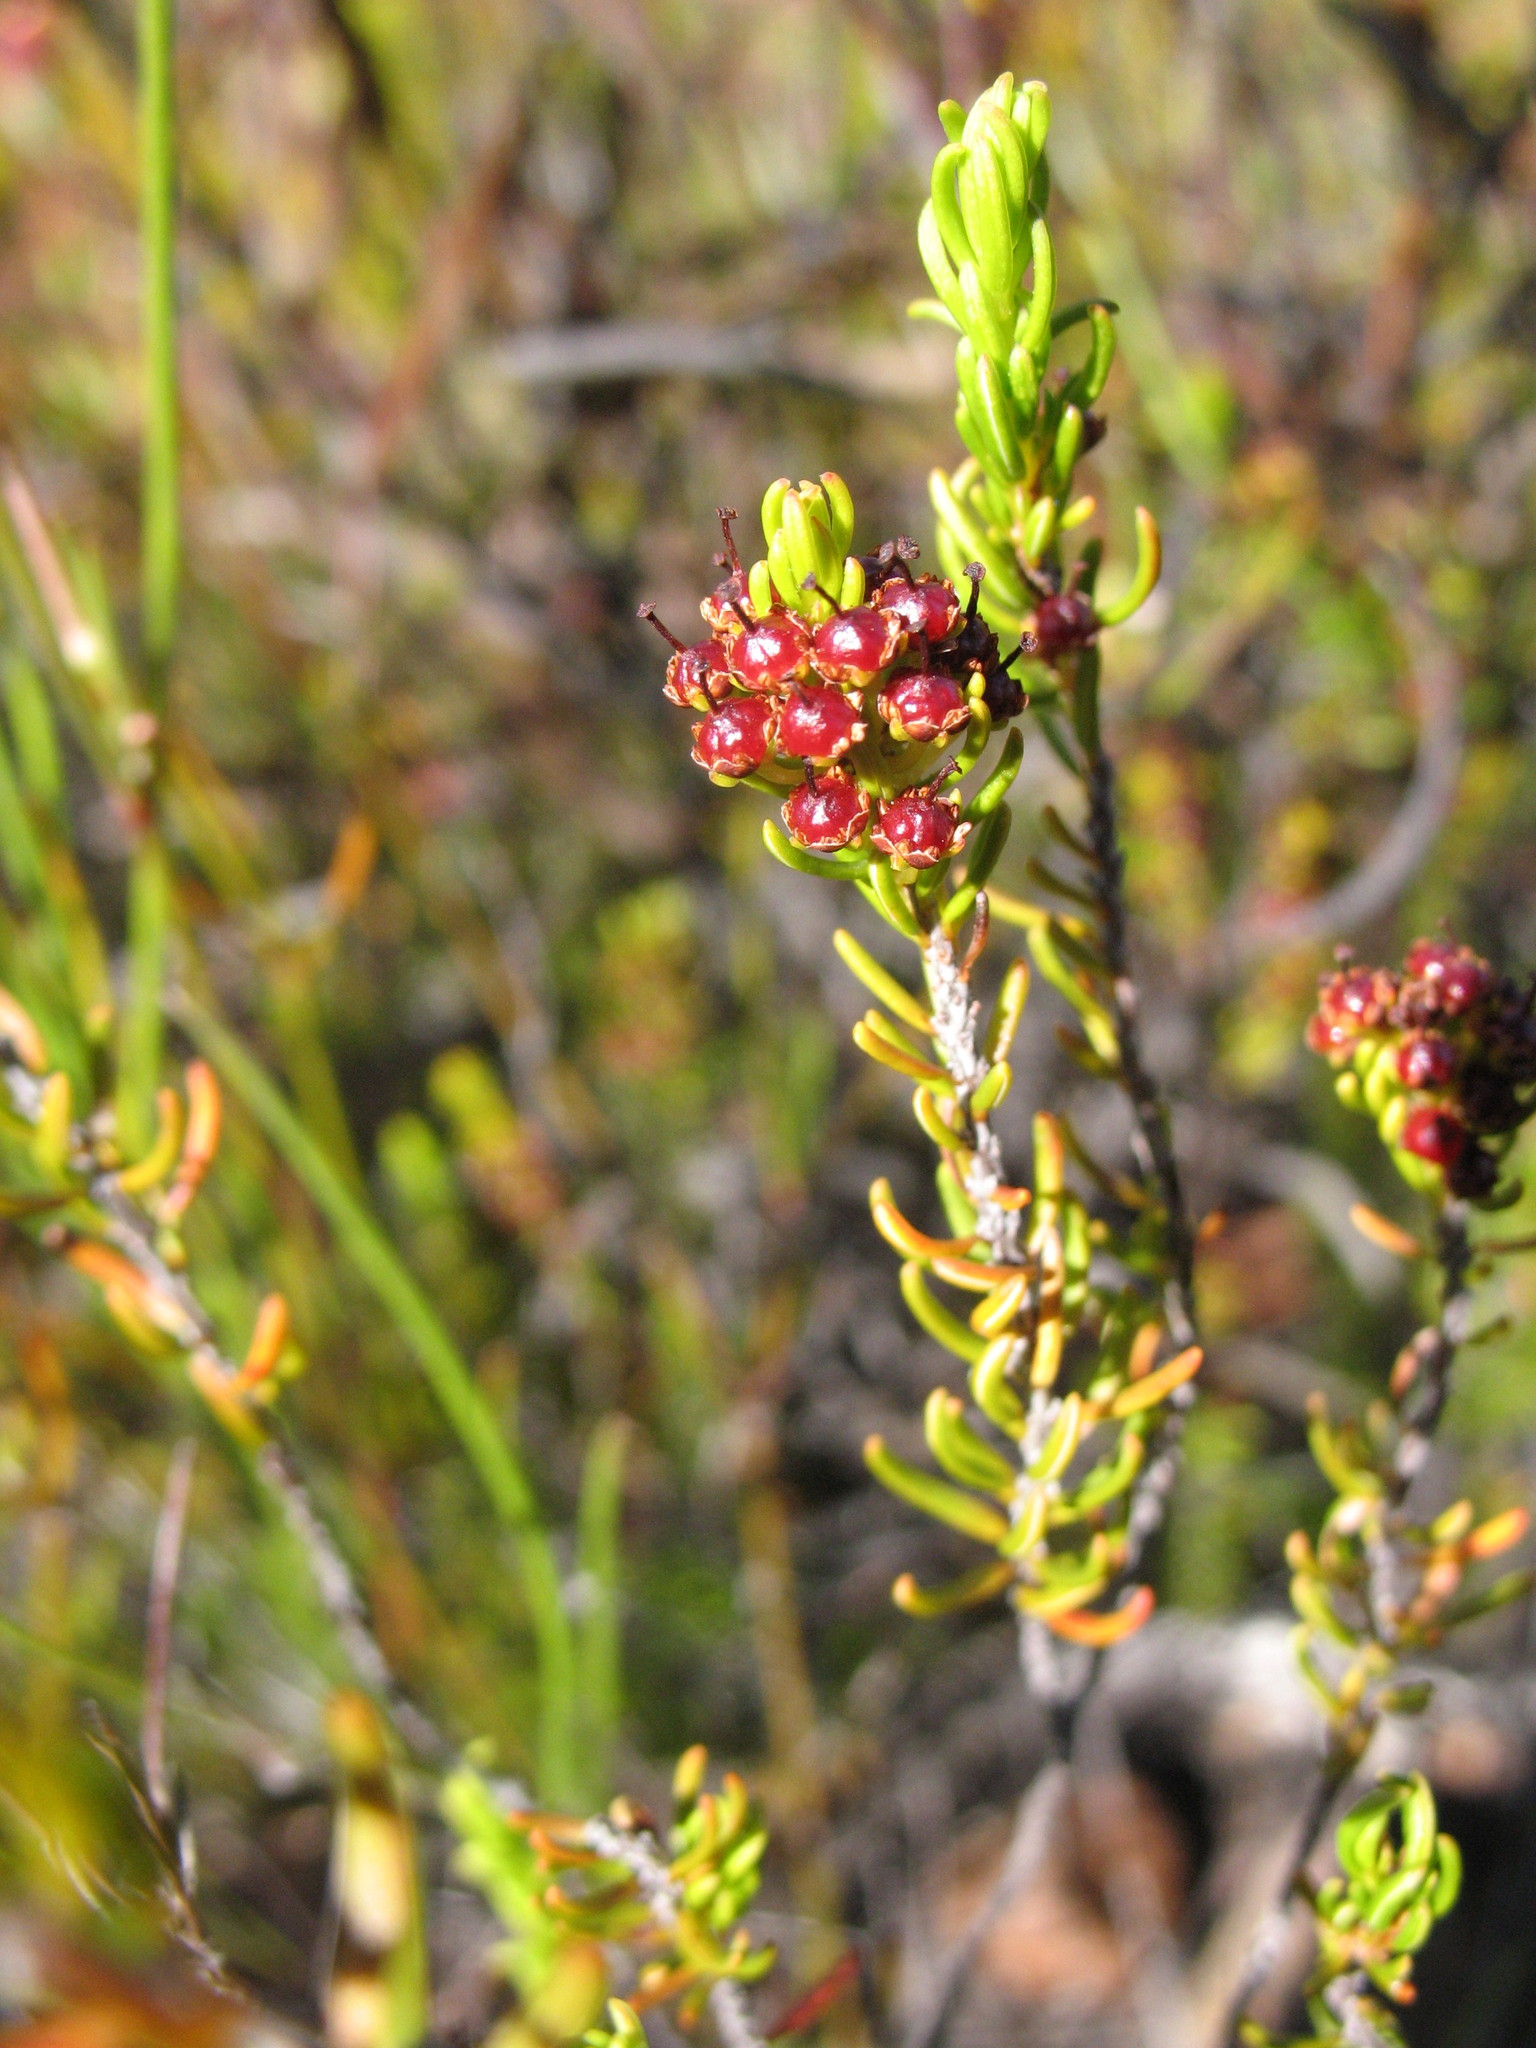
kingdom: Plantae
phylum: Tracheophyta
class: Magnoliopsida
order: Ericales
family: Ericaceae
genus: Erica
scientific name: Erica coarctata
